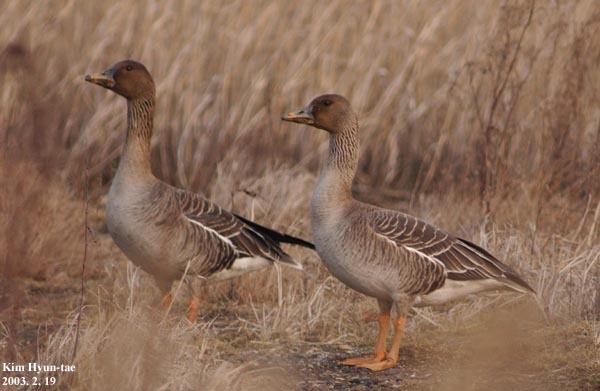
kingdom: Animalia
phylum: Chordata
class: Aves
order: Anseriformes
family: Anatidae
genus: Anser
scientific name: Anser fabalis
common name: Bean goose
